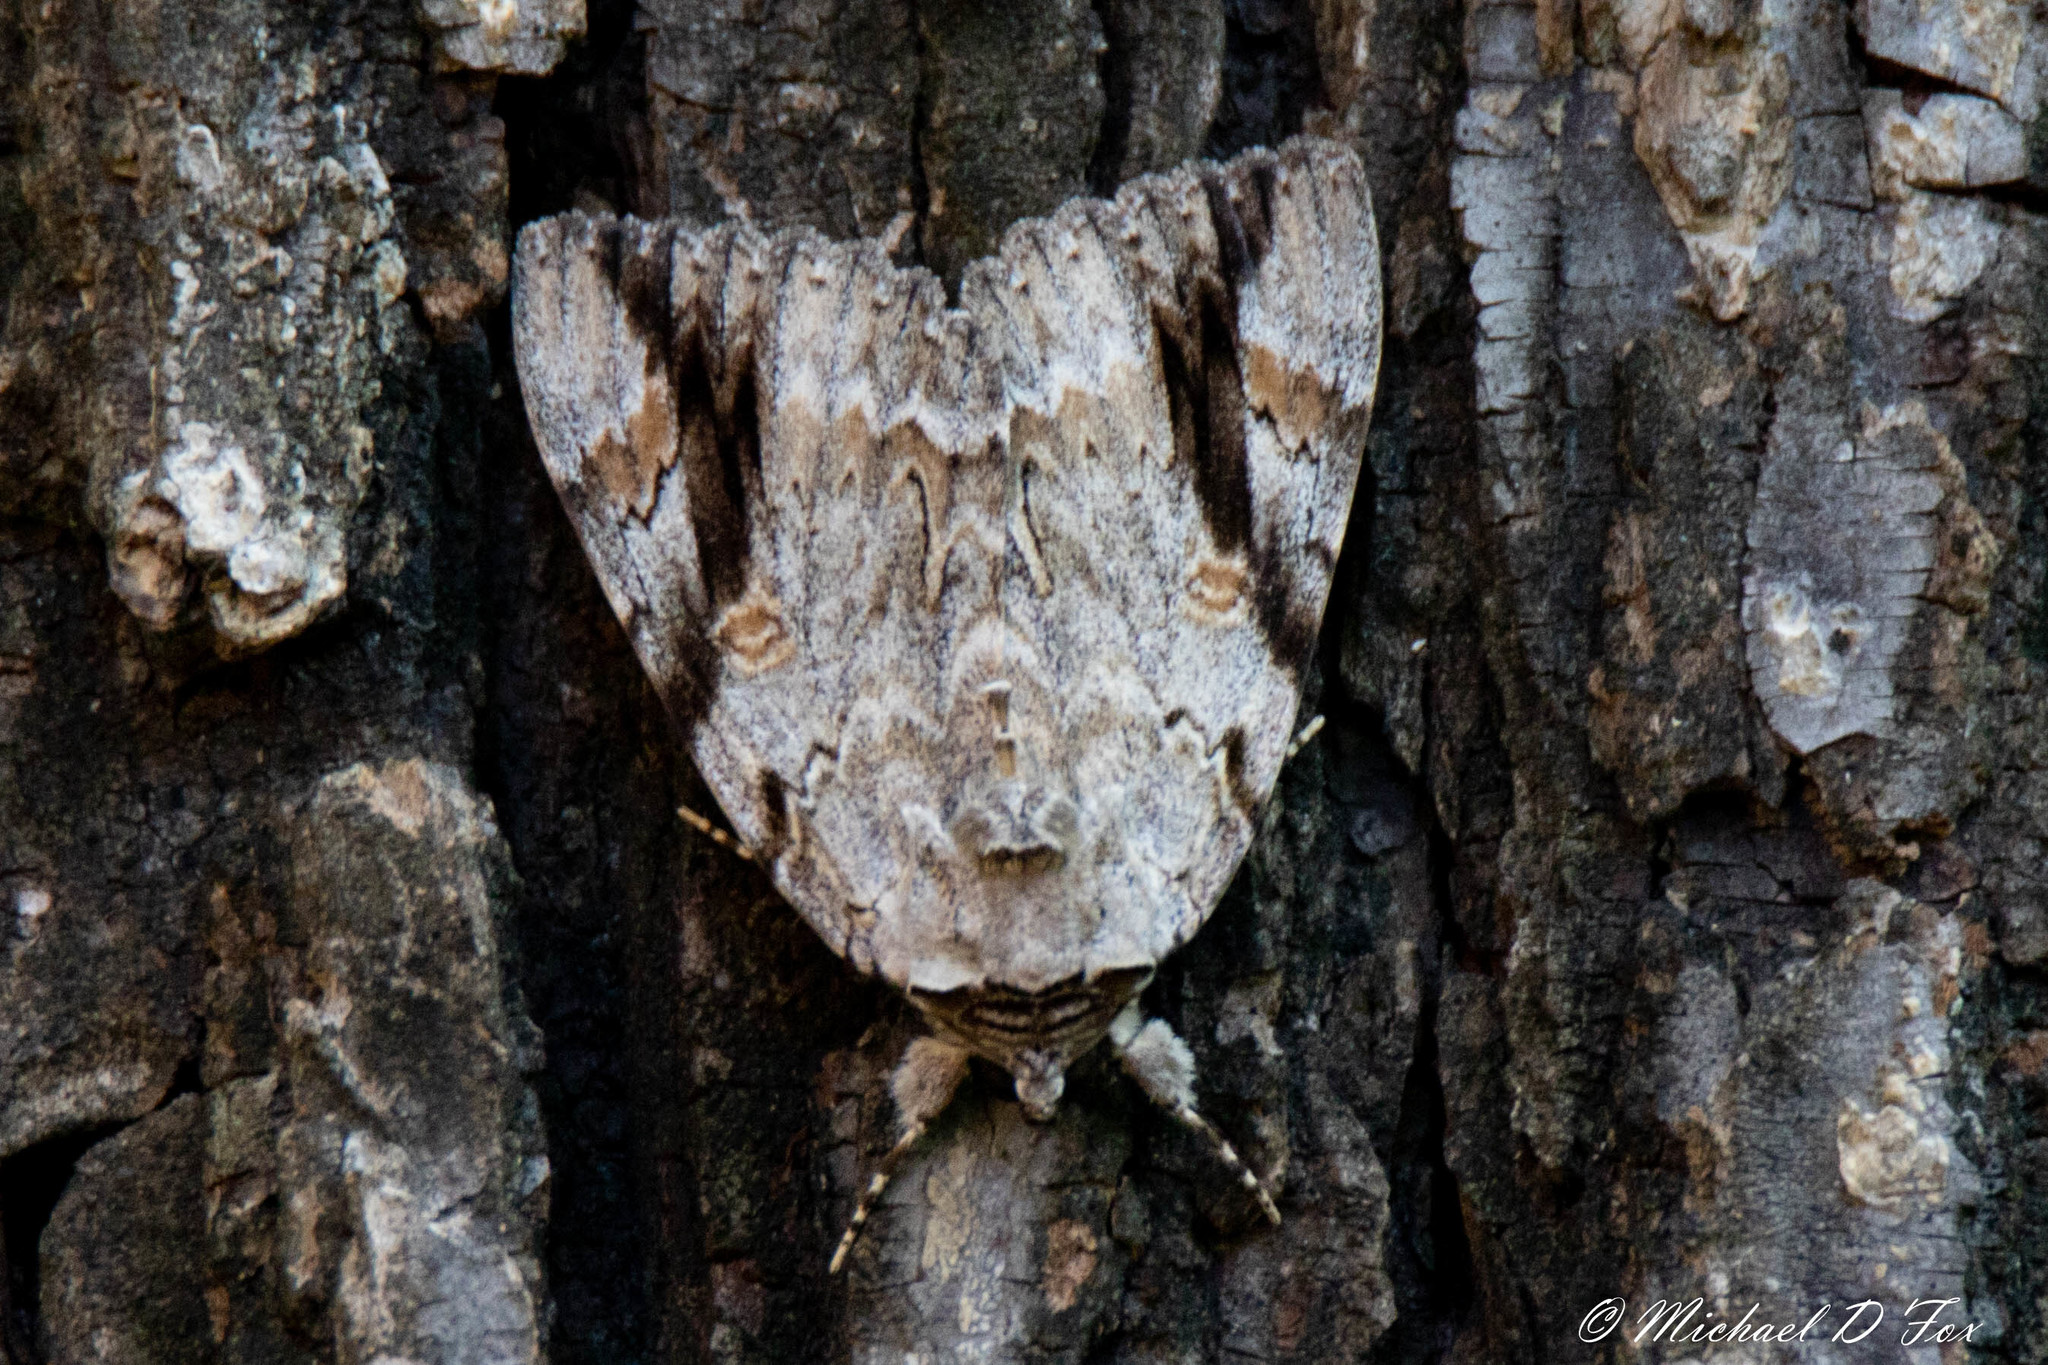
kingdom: Animalia
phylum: Arthropoda
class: Insecta
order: Lepidoptera
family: Erebidae
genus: Catocala
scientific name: Catocala maestosa
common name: Sad underwing
